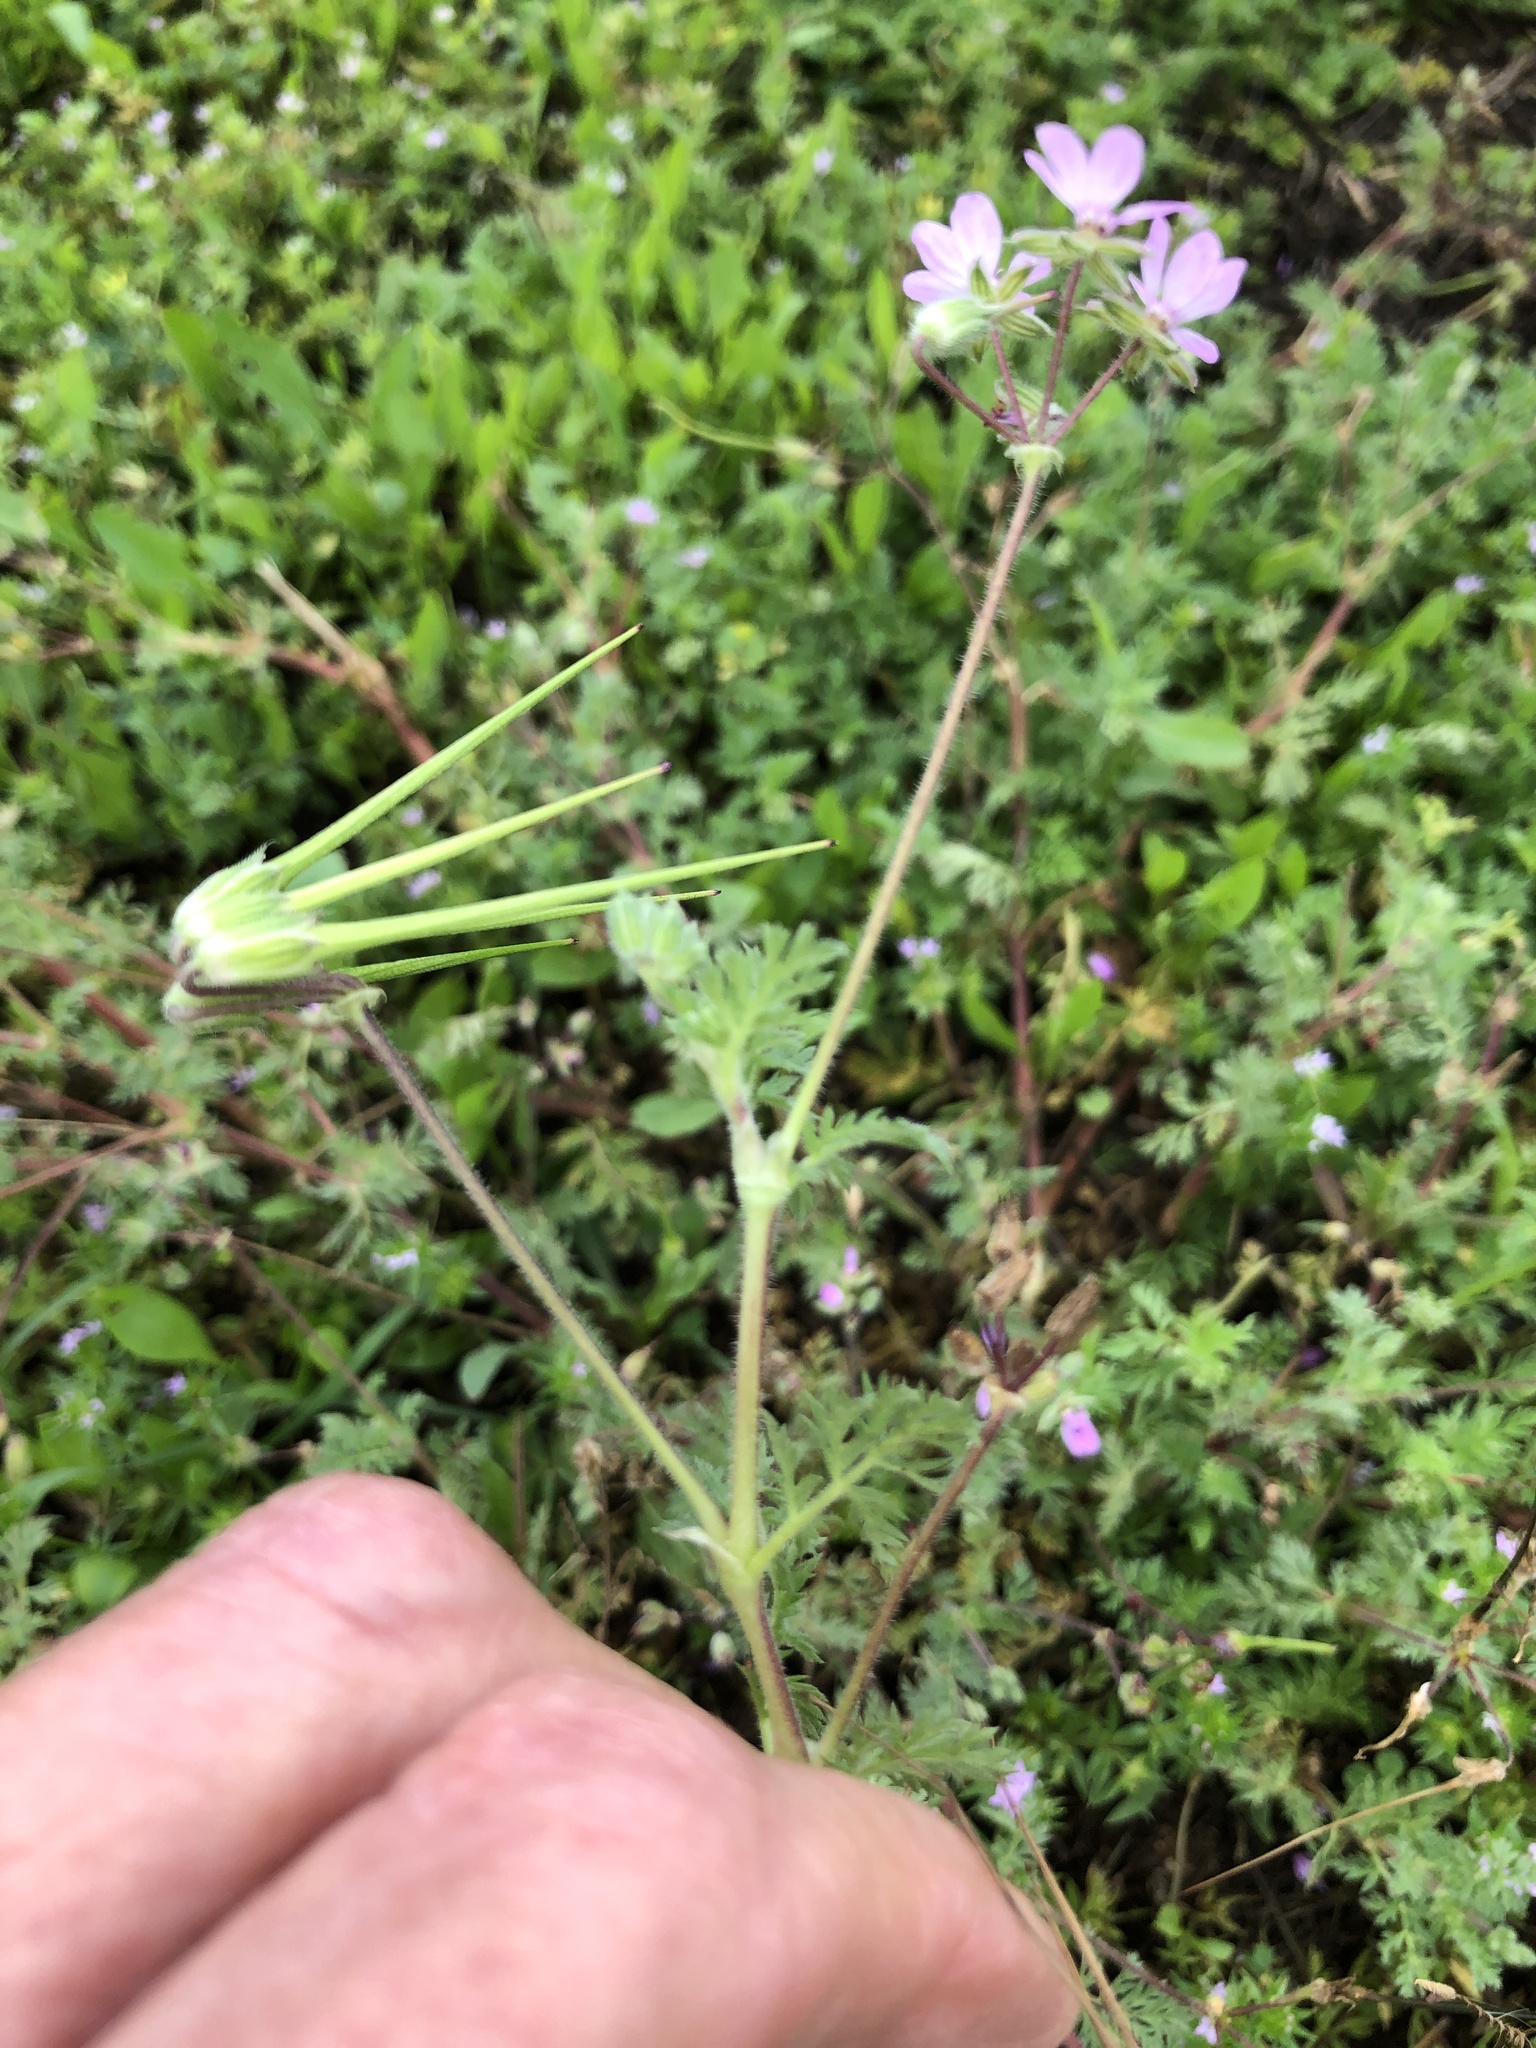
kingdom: Plantae
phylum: Tracheophyta
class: Magnoliopsida
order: Geraniales
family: Geraniaceae
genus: Erodium
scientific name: Erodium cicutarium
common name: Common stork's-bill
